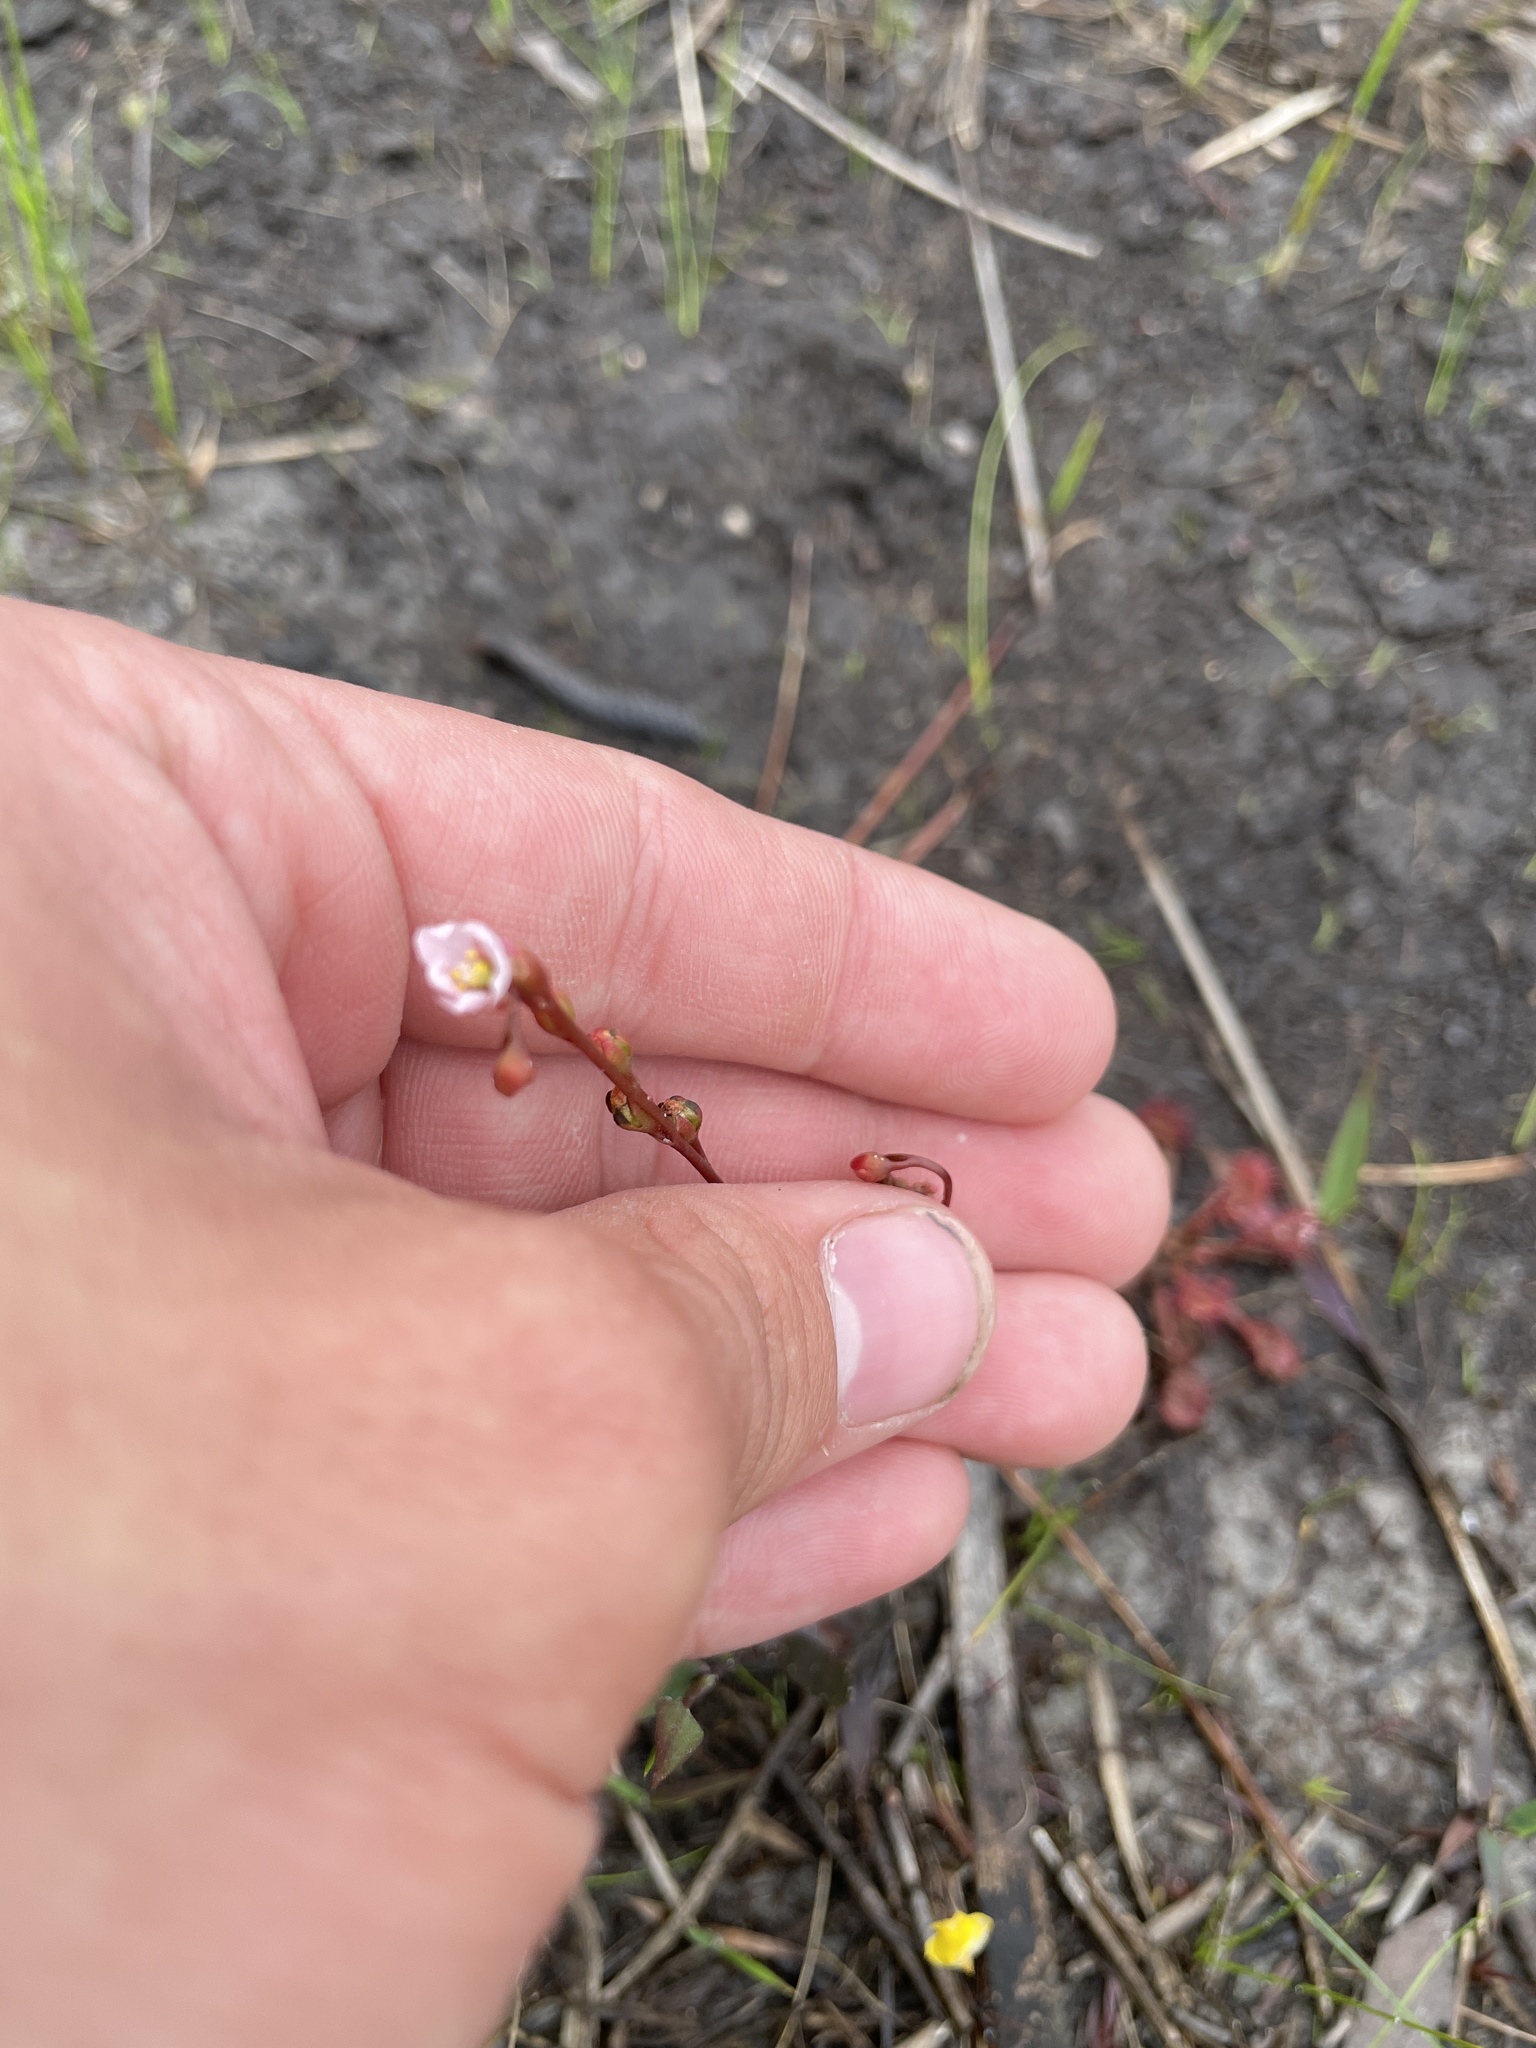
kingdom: Plantae
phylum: Tracheophyta
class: Magnoliopsida
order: Caryophyllales
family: Droseraceae
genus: Drosera
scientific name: Drosera capillaris
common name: Pink sundew
